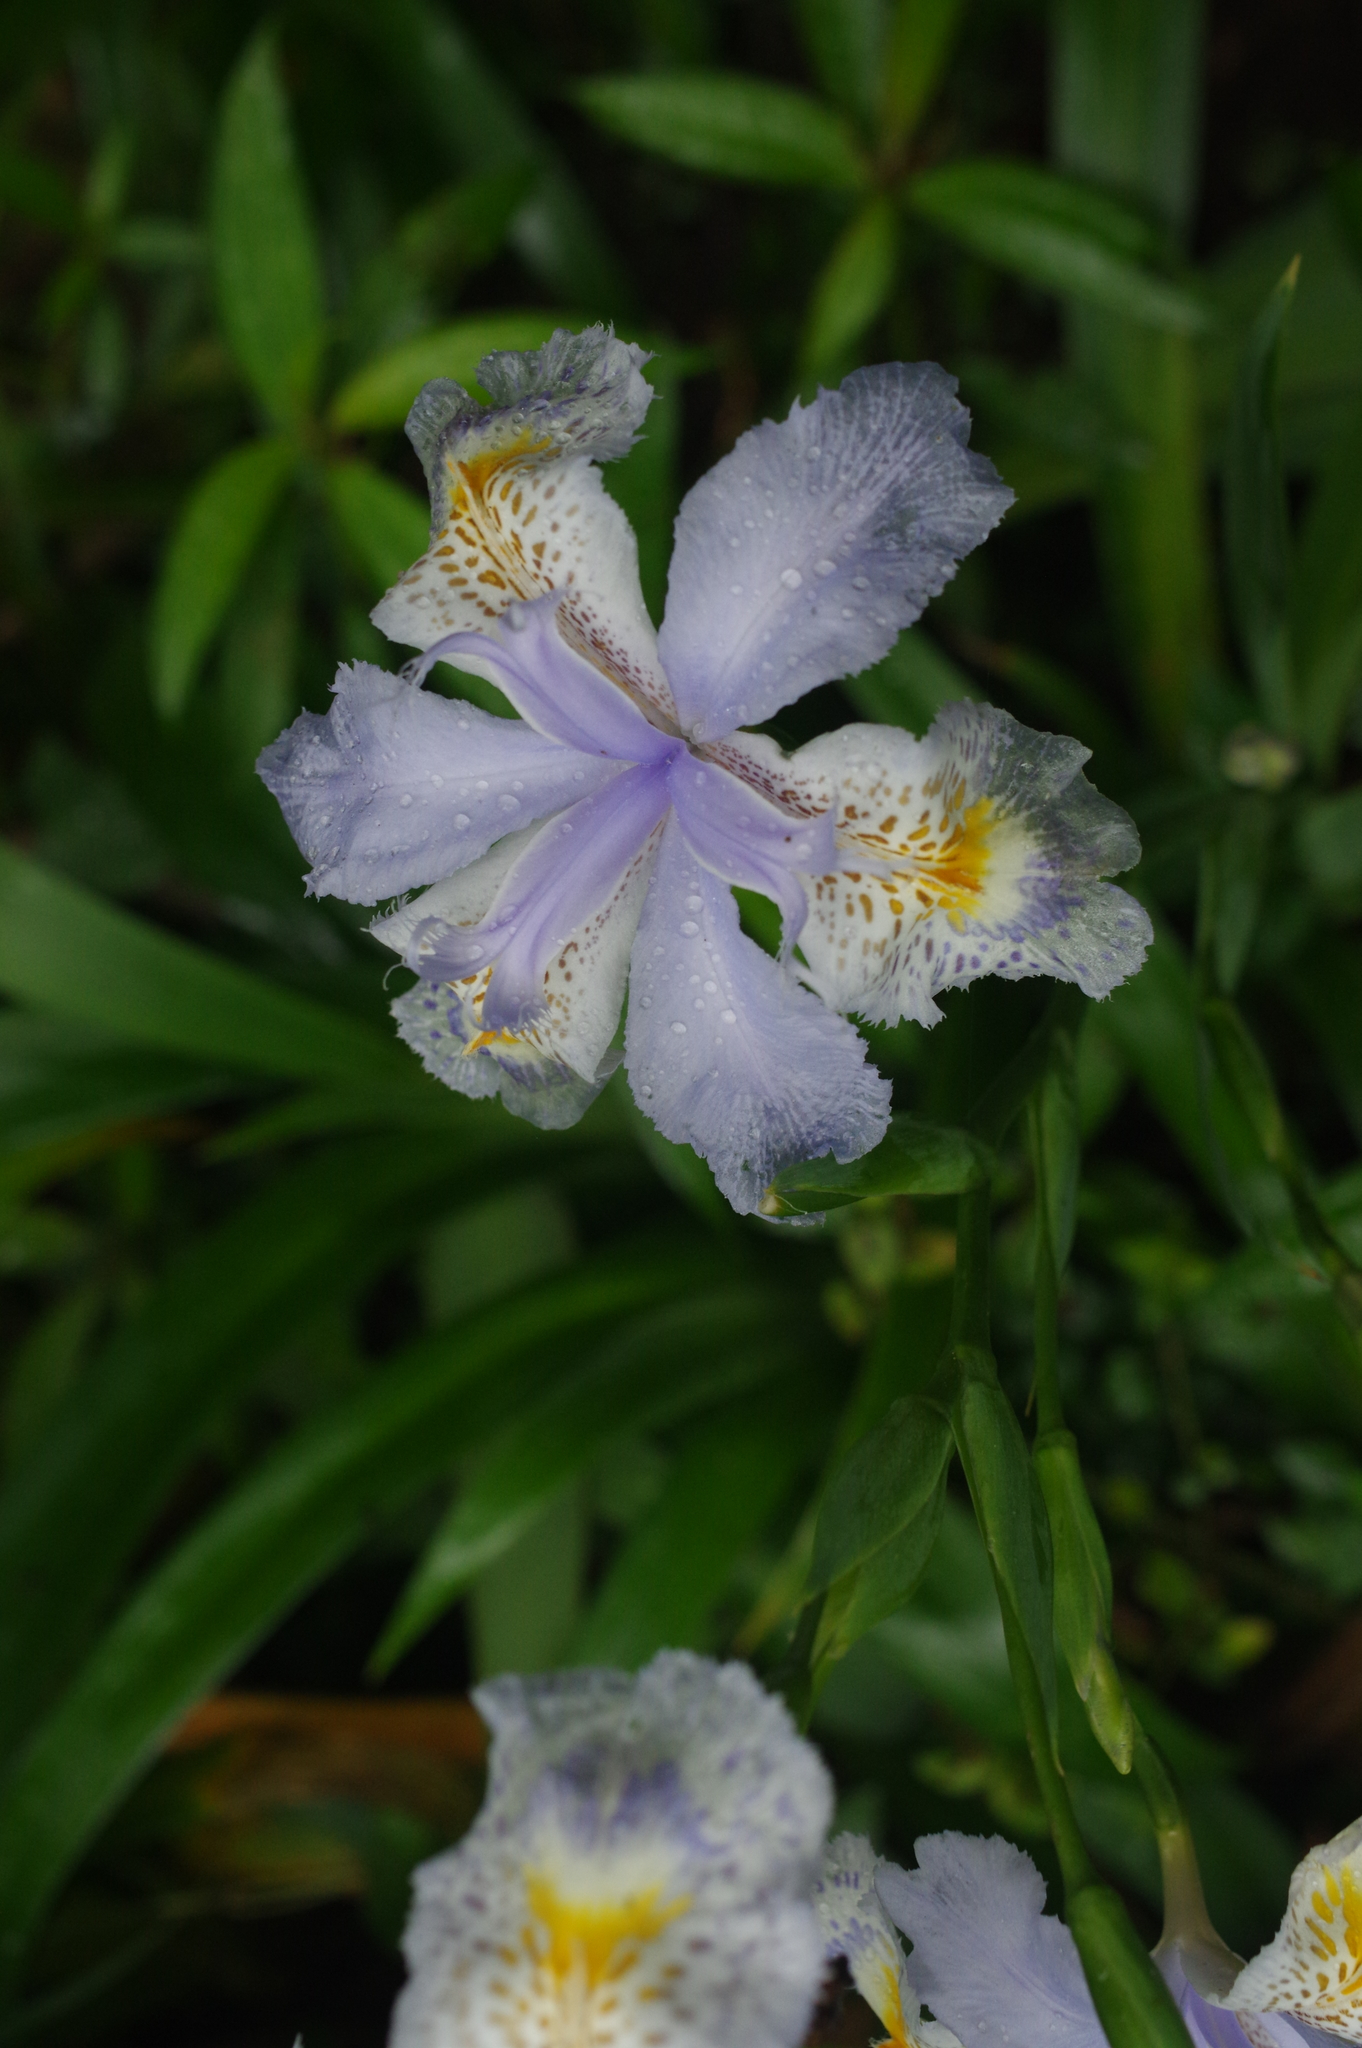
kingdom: Plantae
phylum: Tracheophyta
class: Liliopsida
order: Asparagales
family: Iridaceae
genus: Iris
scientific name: Iris formosana
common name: Taiwan iris
